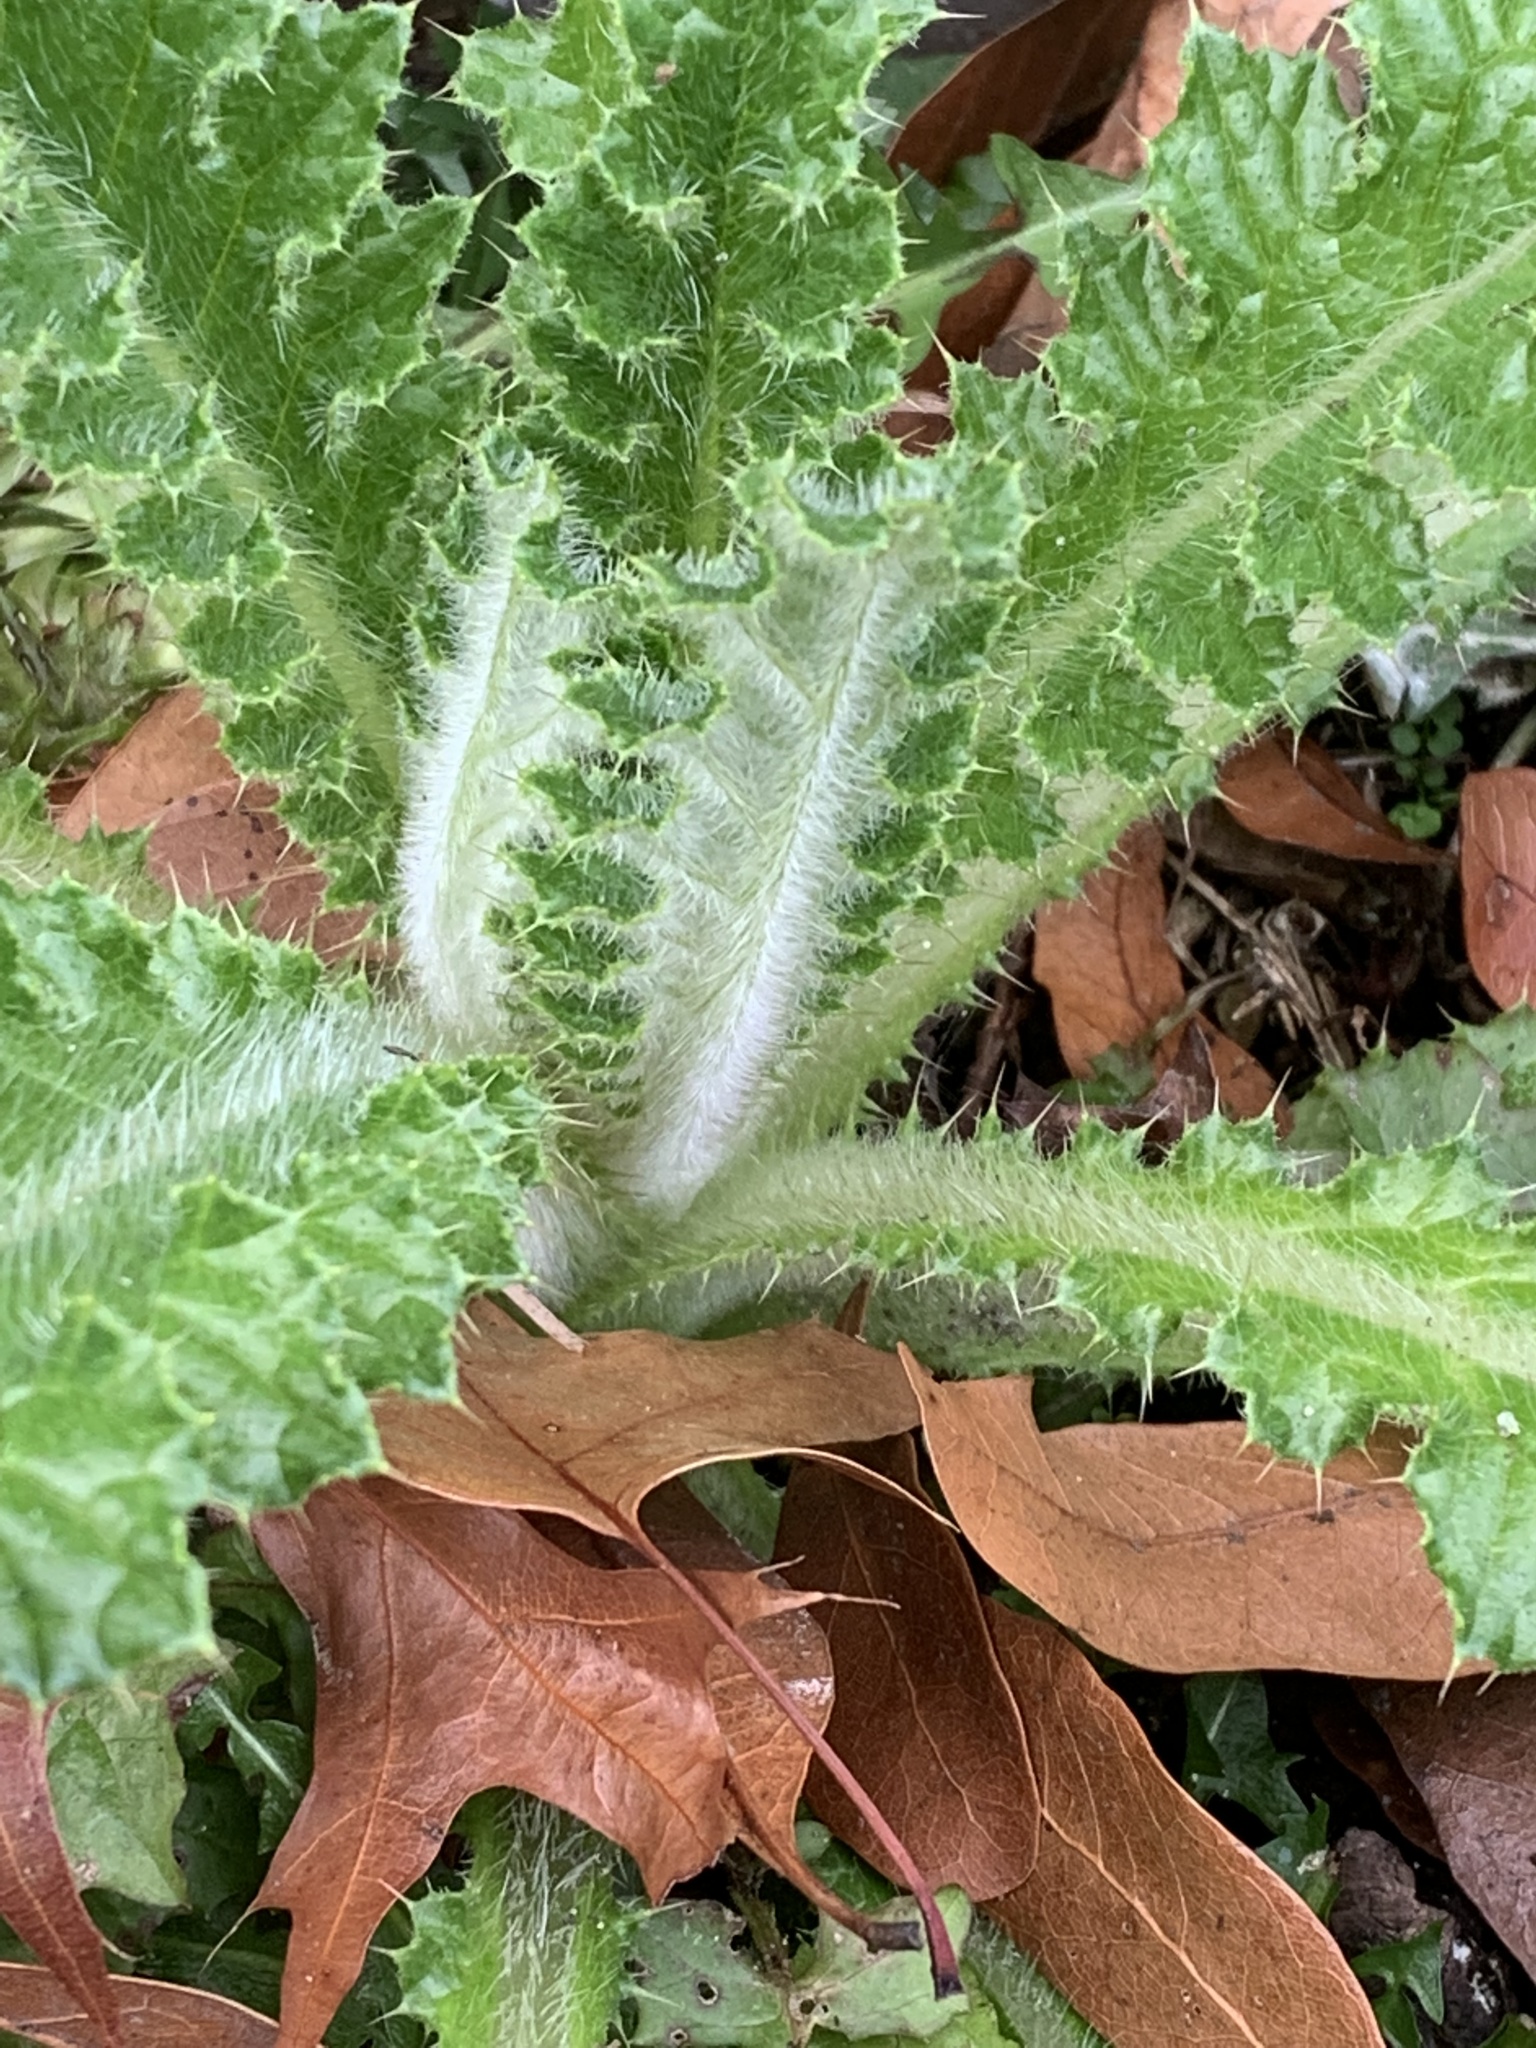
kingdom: Plantae
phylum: Tracheophyta
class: Magnoliopsida
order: Asterales
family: Asteraceae
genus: Cirsium
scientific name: Cirsium brevistylum
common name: Indian thistle
